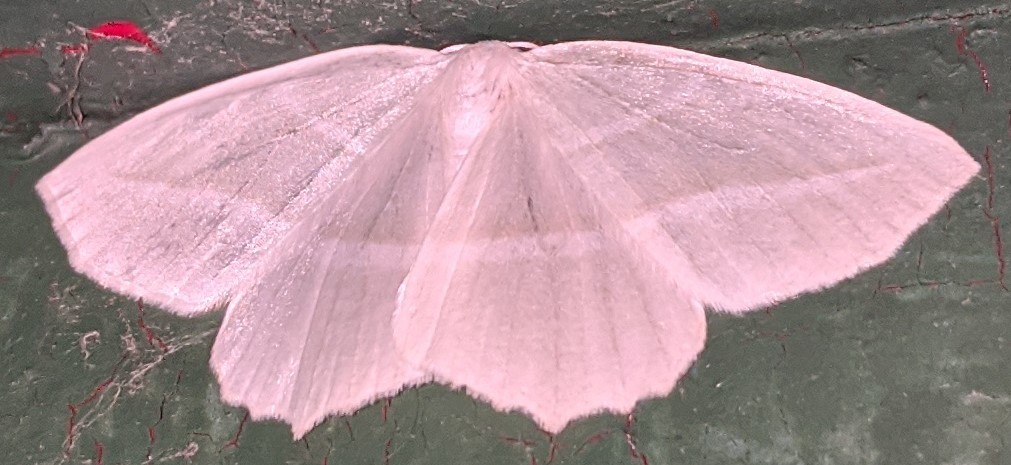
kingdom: Animalia
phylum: Arthropoda
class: Insecta
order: Lepidoptera
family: Geometridae
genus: Campaea
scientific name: Campaea perlata
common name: Fringed looper
